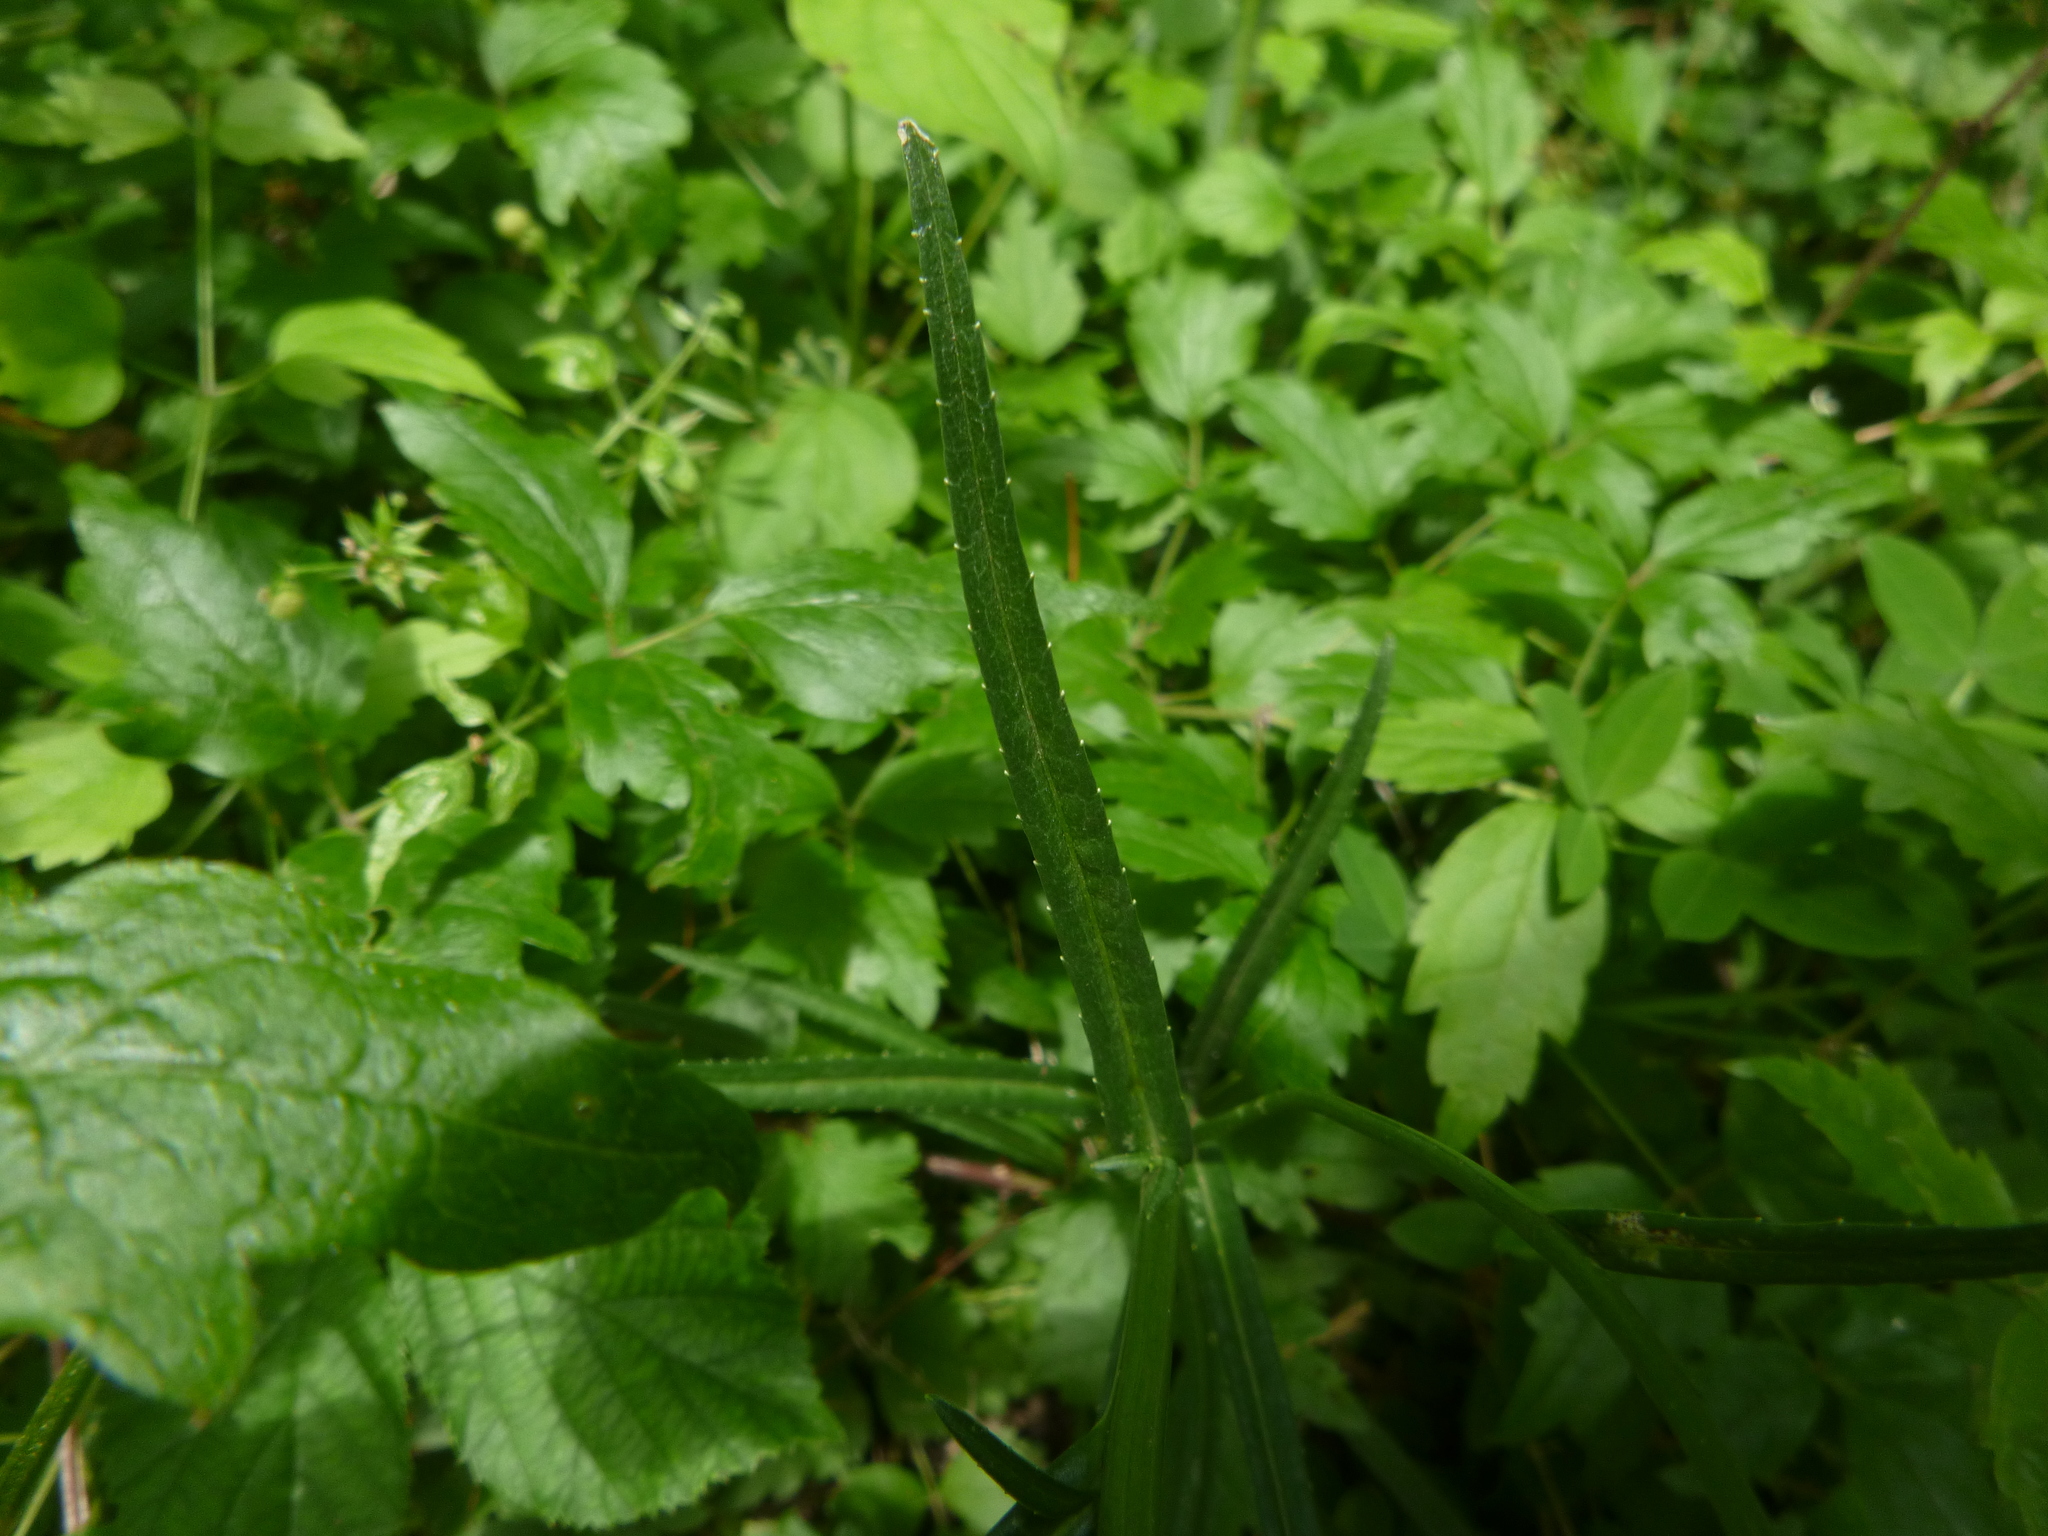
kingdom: Plantae
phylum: Tracheophyta
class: Magnoliopsida
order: Asterales
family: Campanulaceae
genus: Campanula
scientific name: Campanula persicifolia
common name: Peach-leaved bellflower
